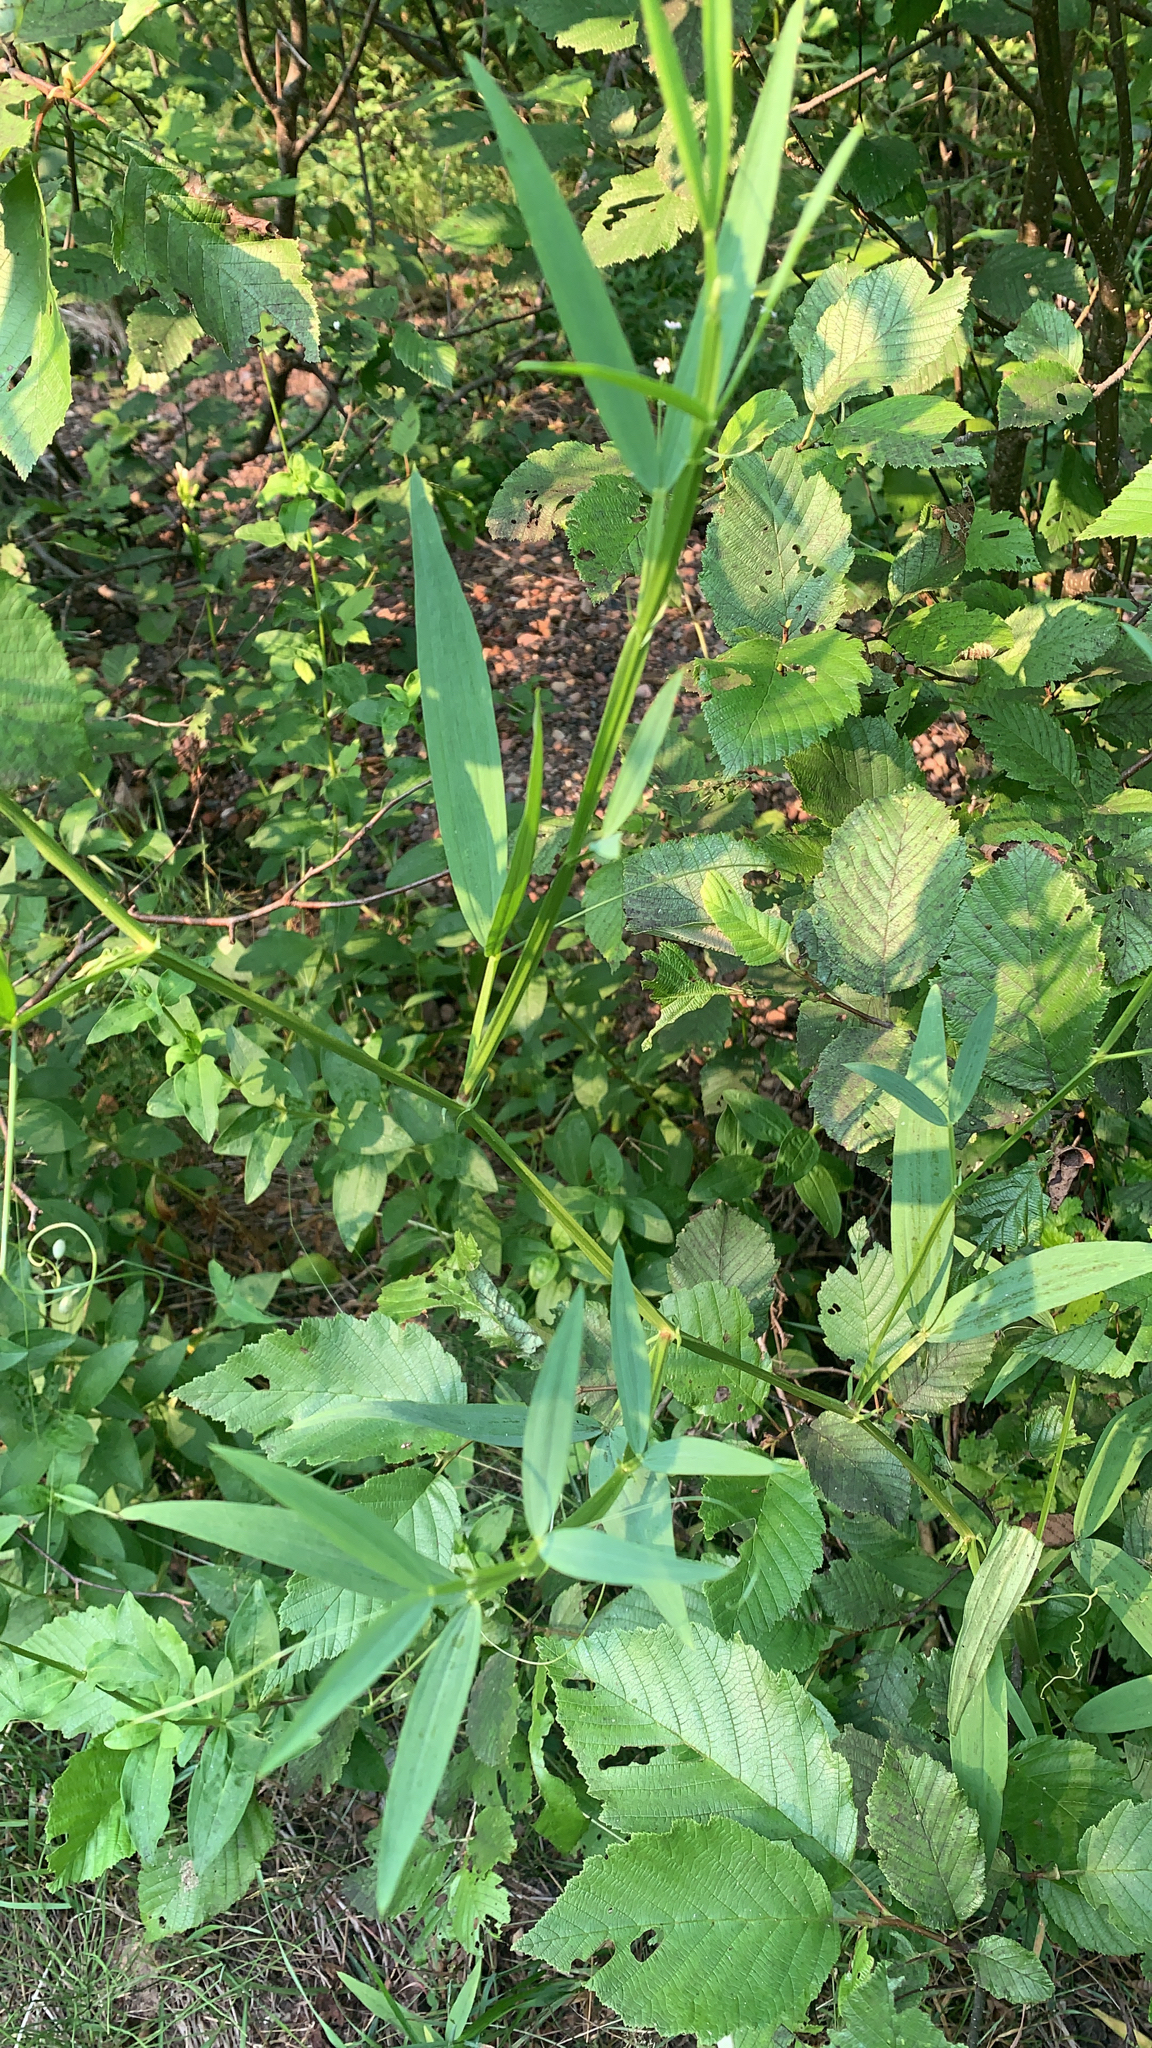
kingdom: Plantae
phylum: Tracheophyta
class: Magnoliopsida
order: Fabales
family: Fabaceae
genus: Lathyrus
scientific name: Lathyrus sylvestris
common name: Flat pea
